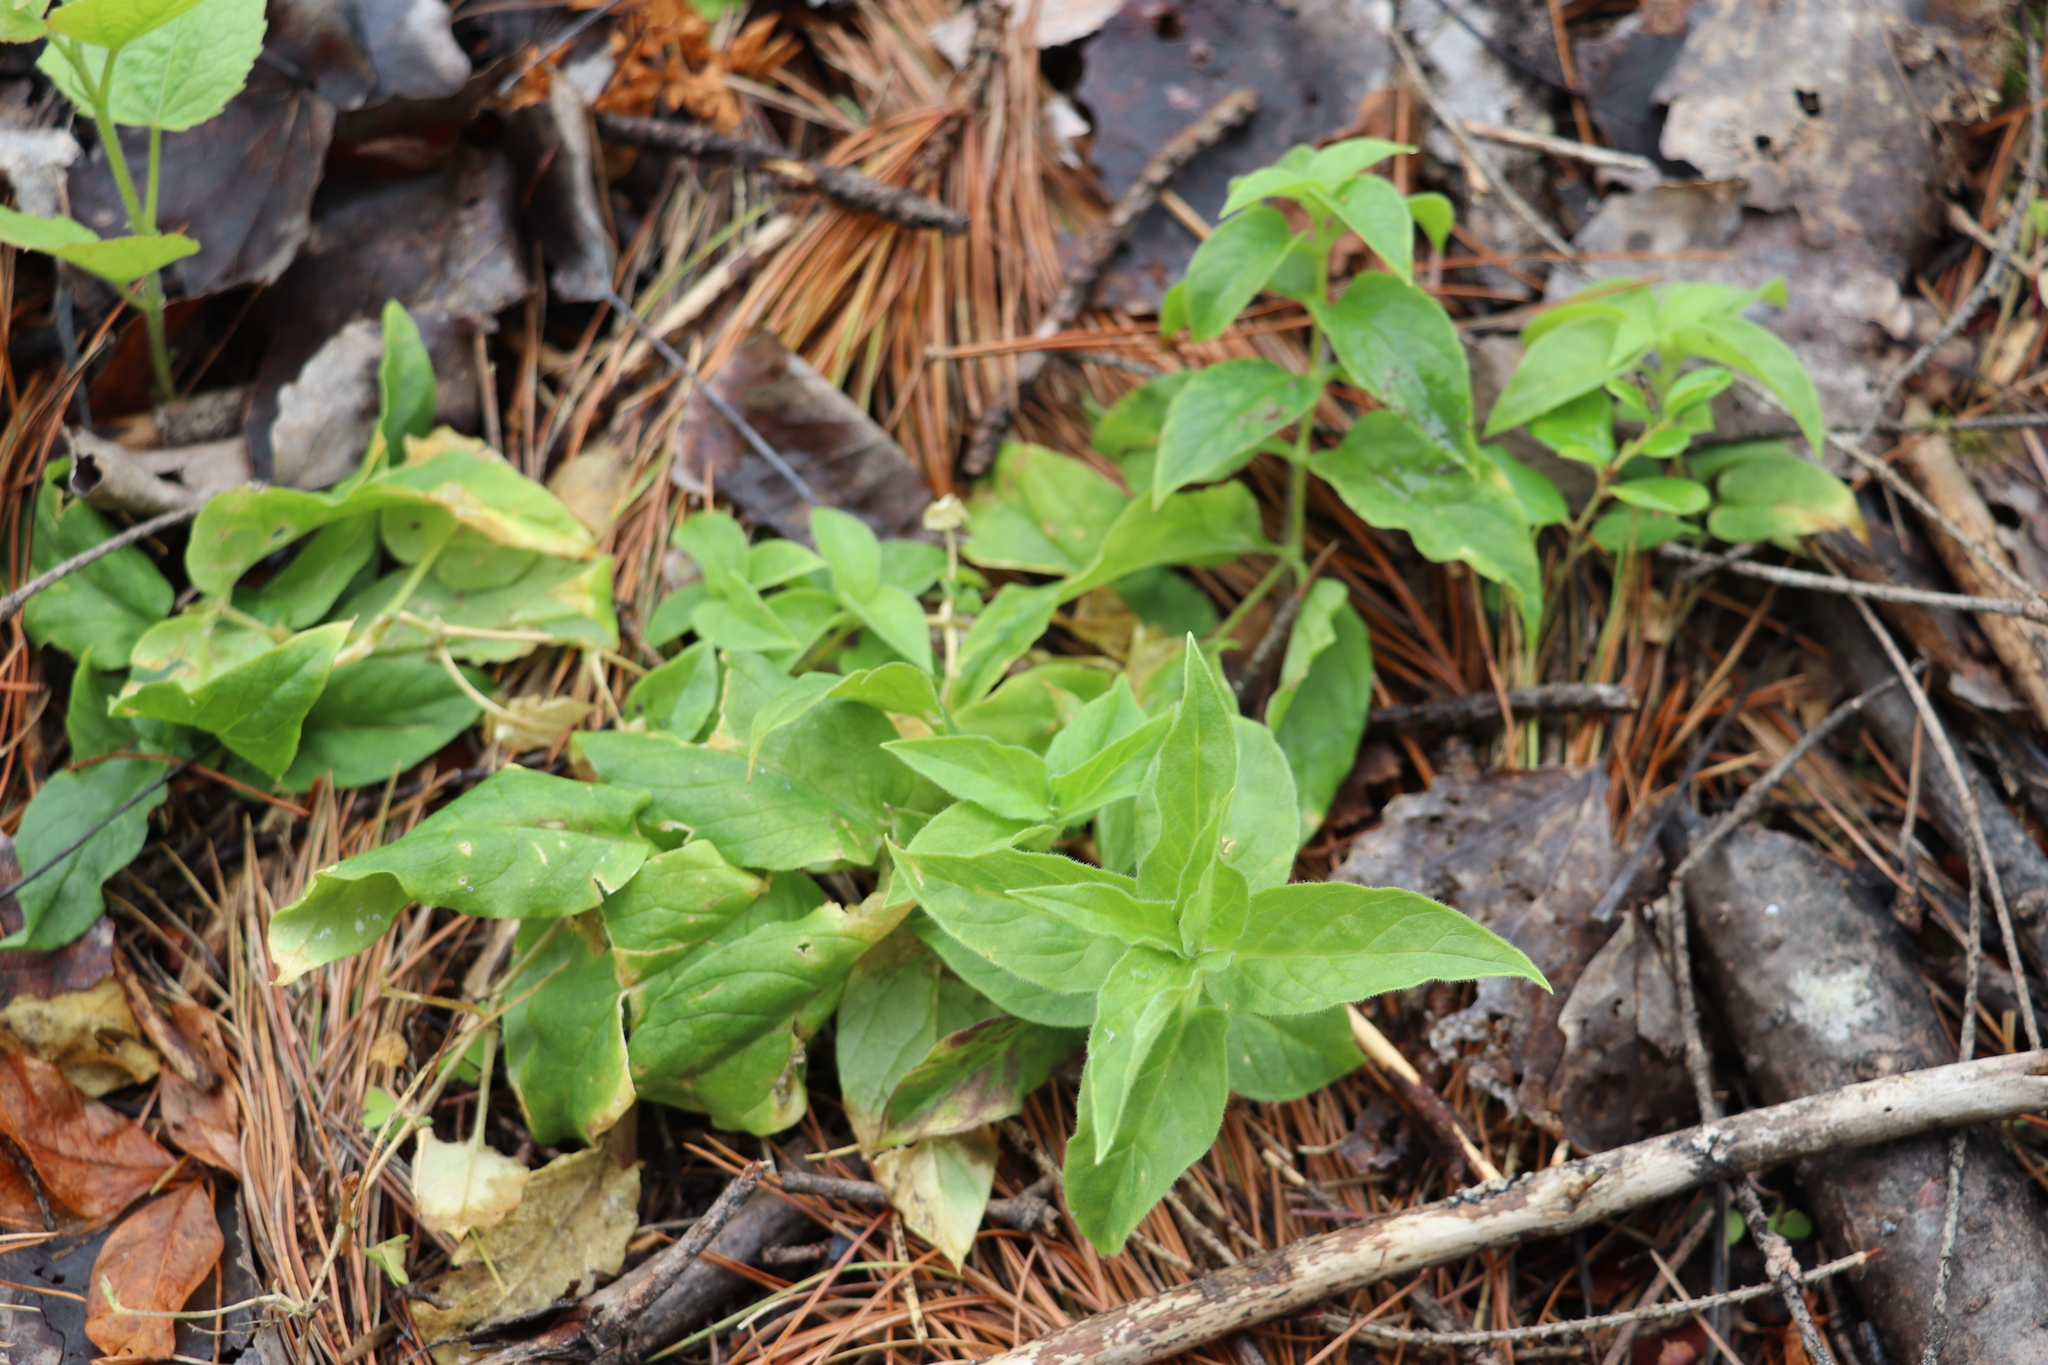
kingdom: Plantae
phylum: Tracheophyta
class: Magnoliopsida
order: Caryophyllales
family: Caryophyllaceae
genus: Stellaria
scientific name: Stellaria bungeana
